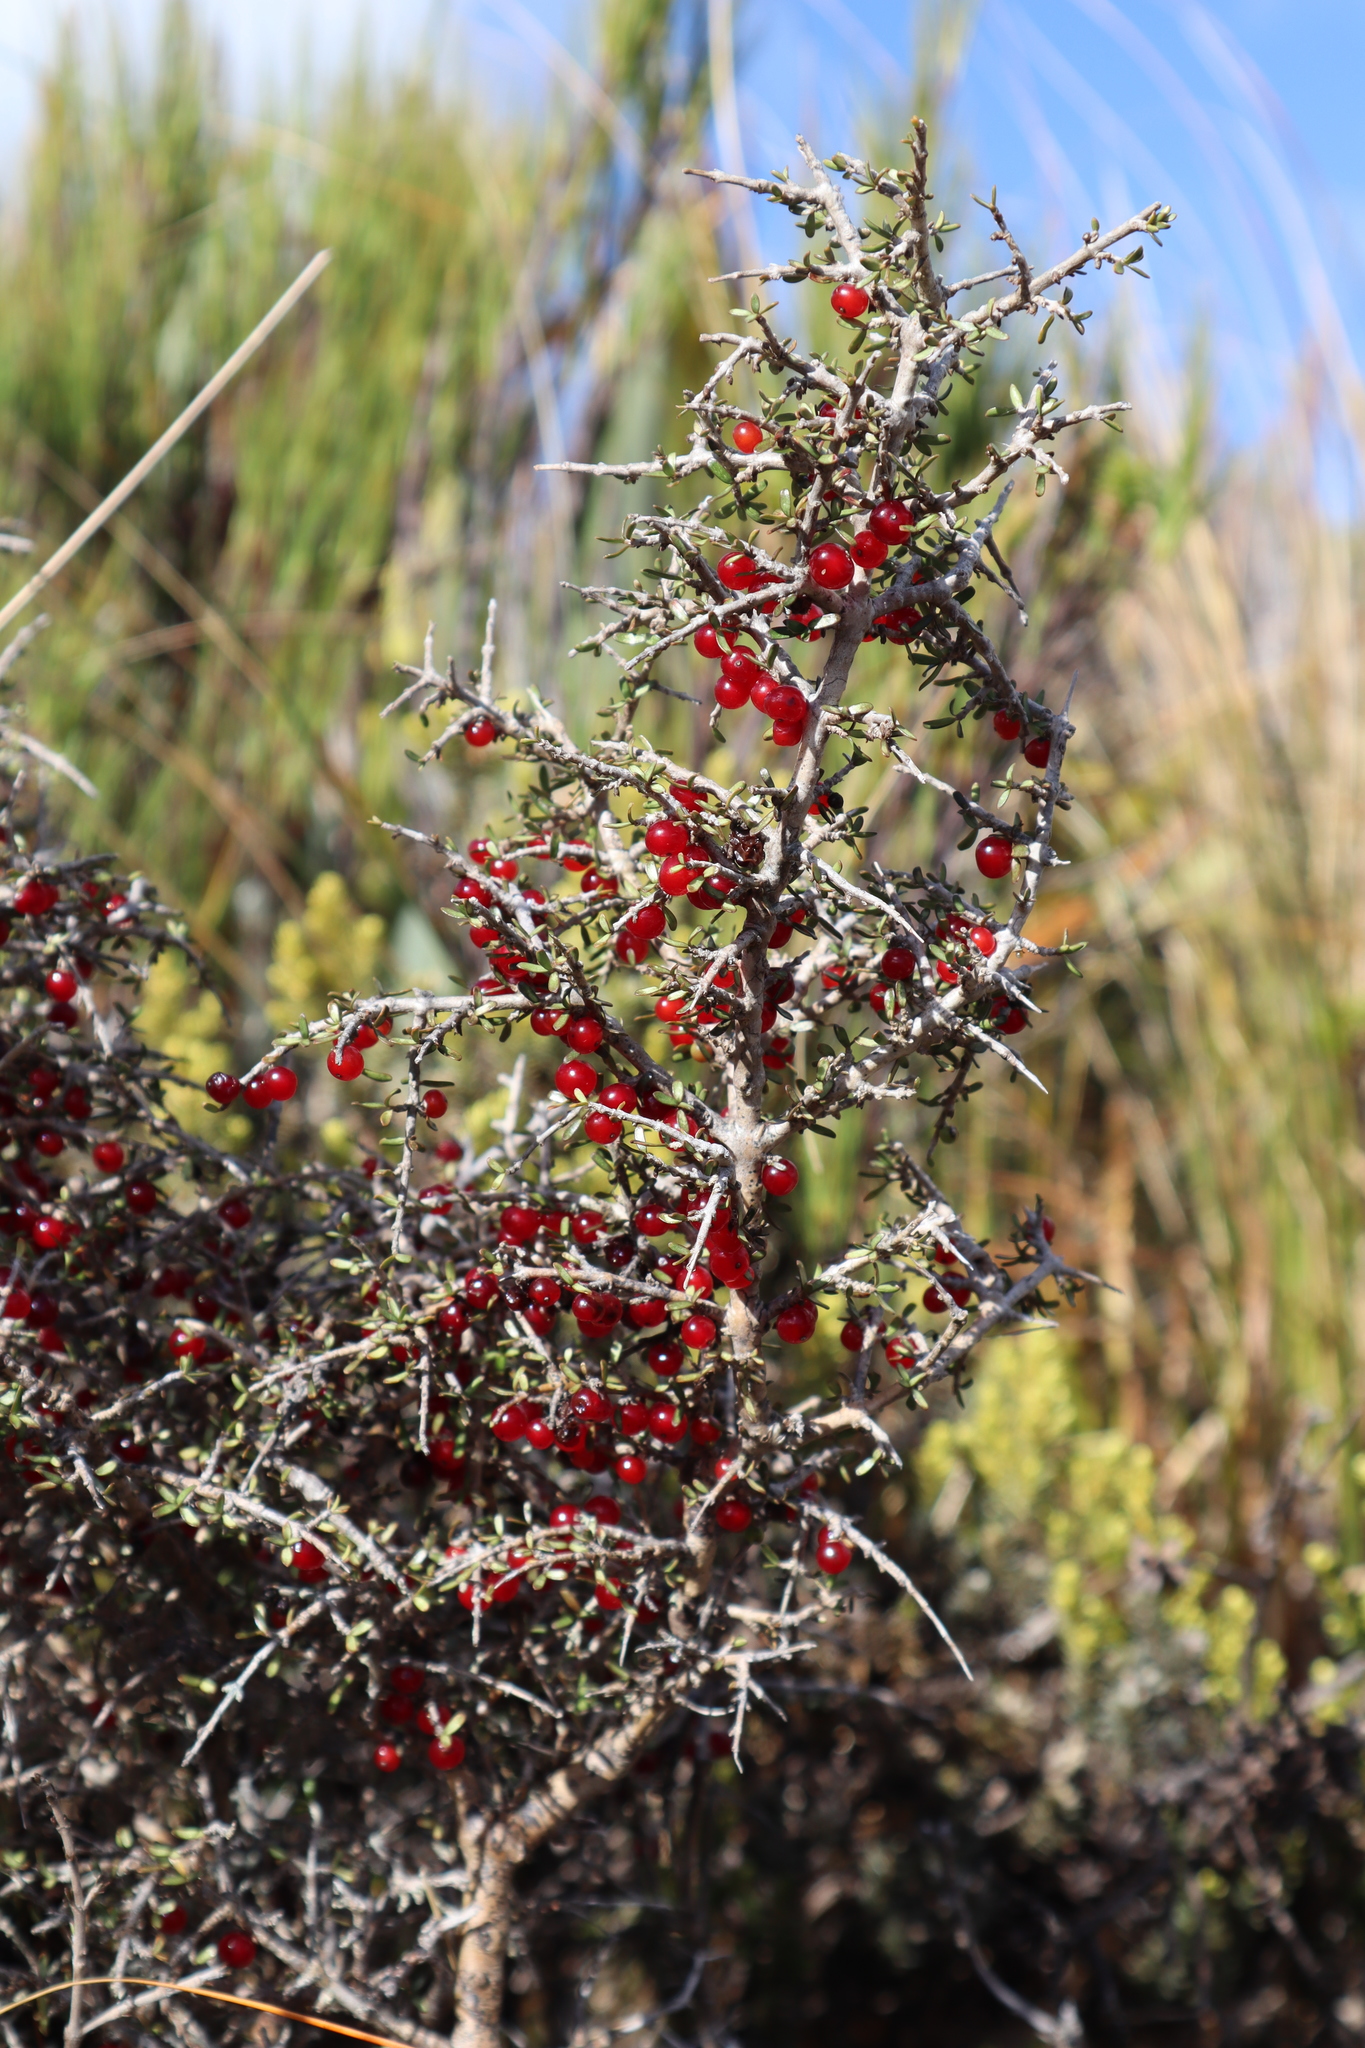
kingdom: Plantae
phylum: Tracheophyta
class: Magnoliopsida
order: Gentianales
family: Rubiaceae
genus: Coprosma
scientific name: Coprosma decurva
